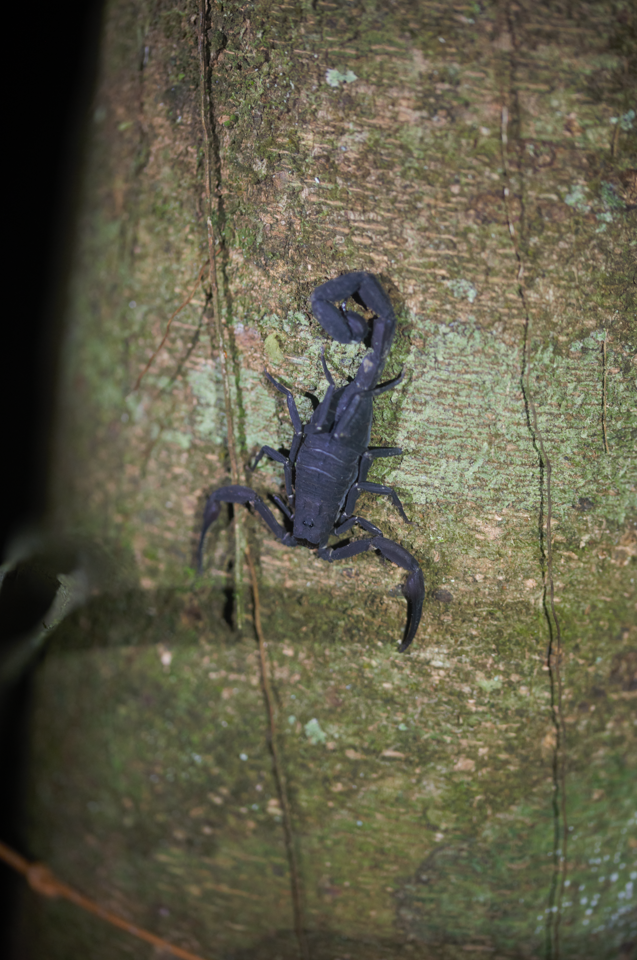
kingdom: Animalia
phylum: Arthropoda
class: Arachnida
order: Scorpiones
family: Buthidae
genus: Tityus
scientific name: Tityus obscurus
